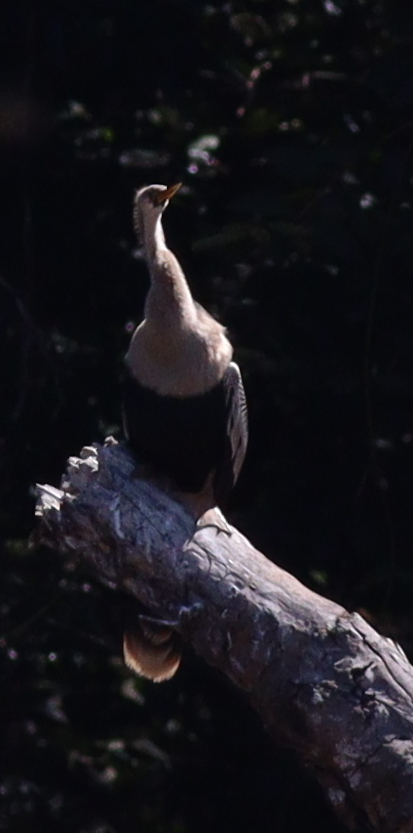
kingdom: Animalia
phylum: Chordata
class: Aves
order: Suliformes
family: Anhingidae
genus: Anhinga
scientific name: Anhinga anhinga
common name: Anhinga
